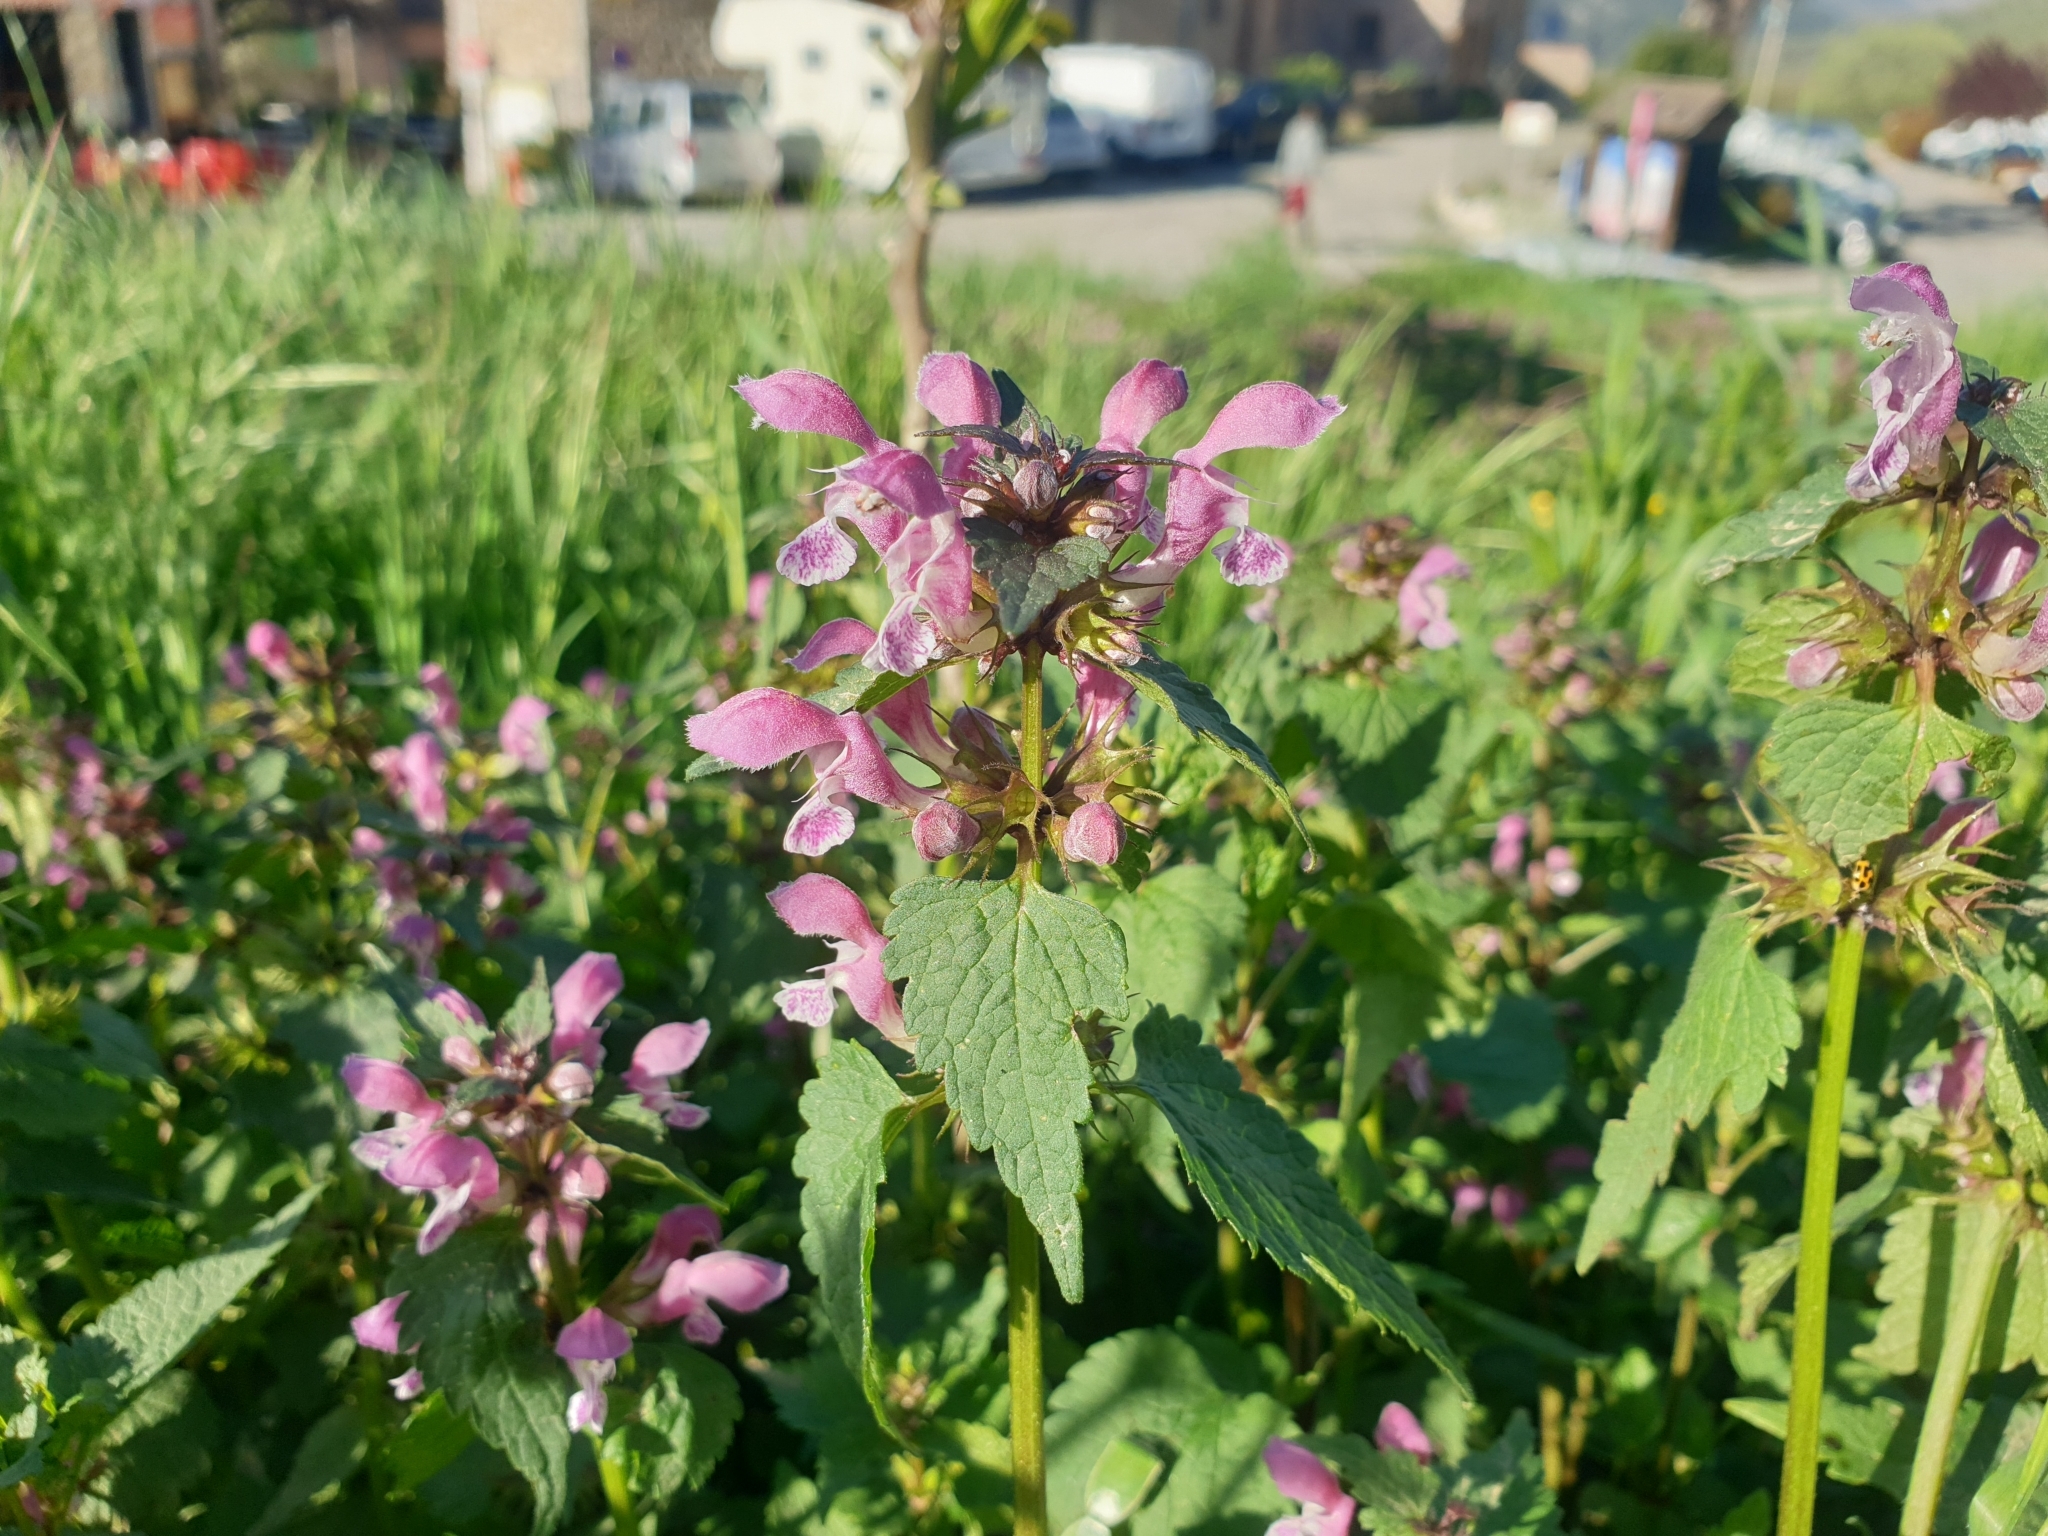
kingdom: Plantae
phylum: Tracheophyta
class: Magnoliopsida
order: Lamiales
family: Lamiaceae
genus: Lamium
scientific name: Lamium maculatum
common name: Spotted dead-nettle
